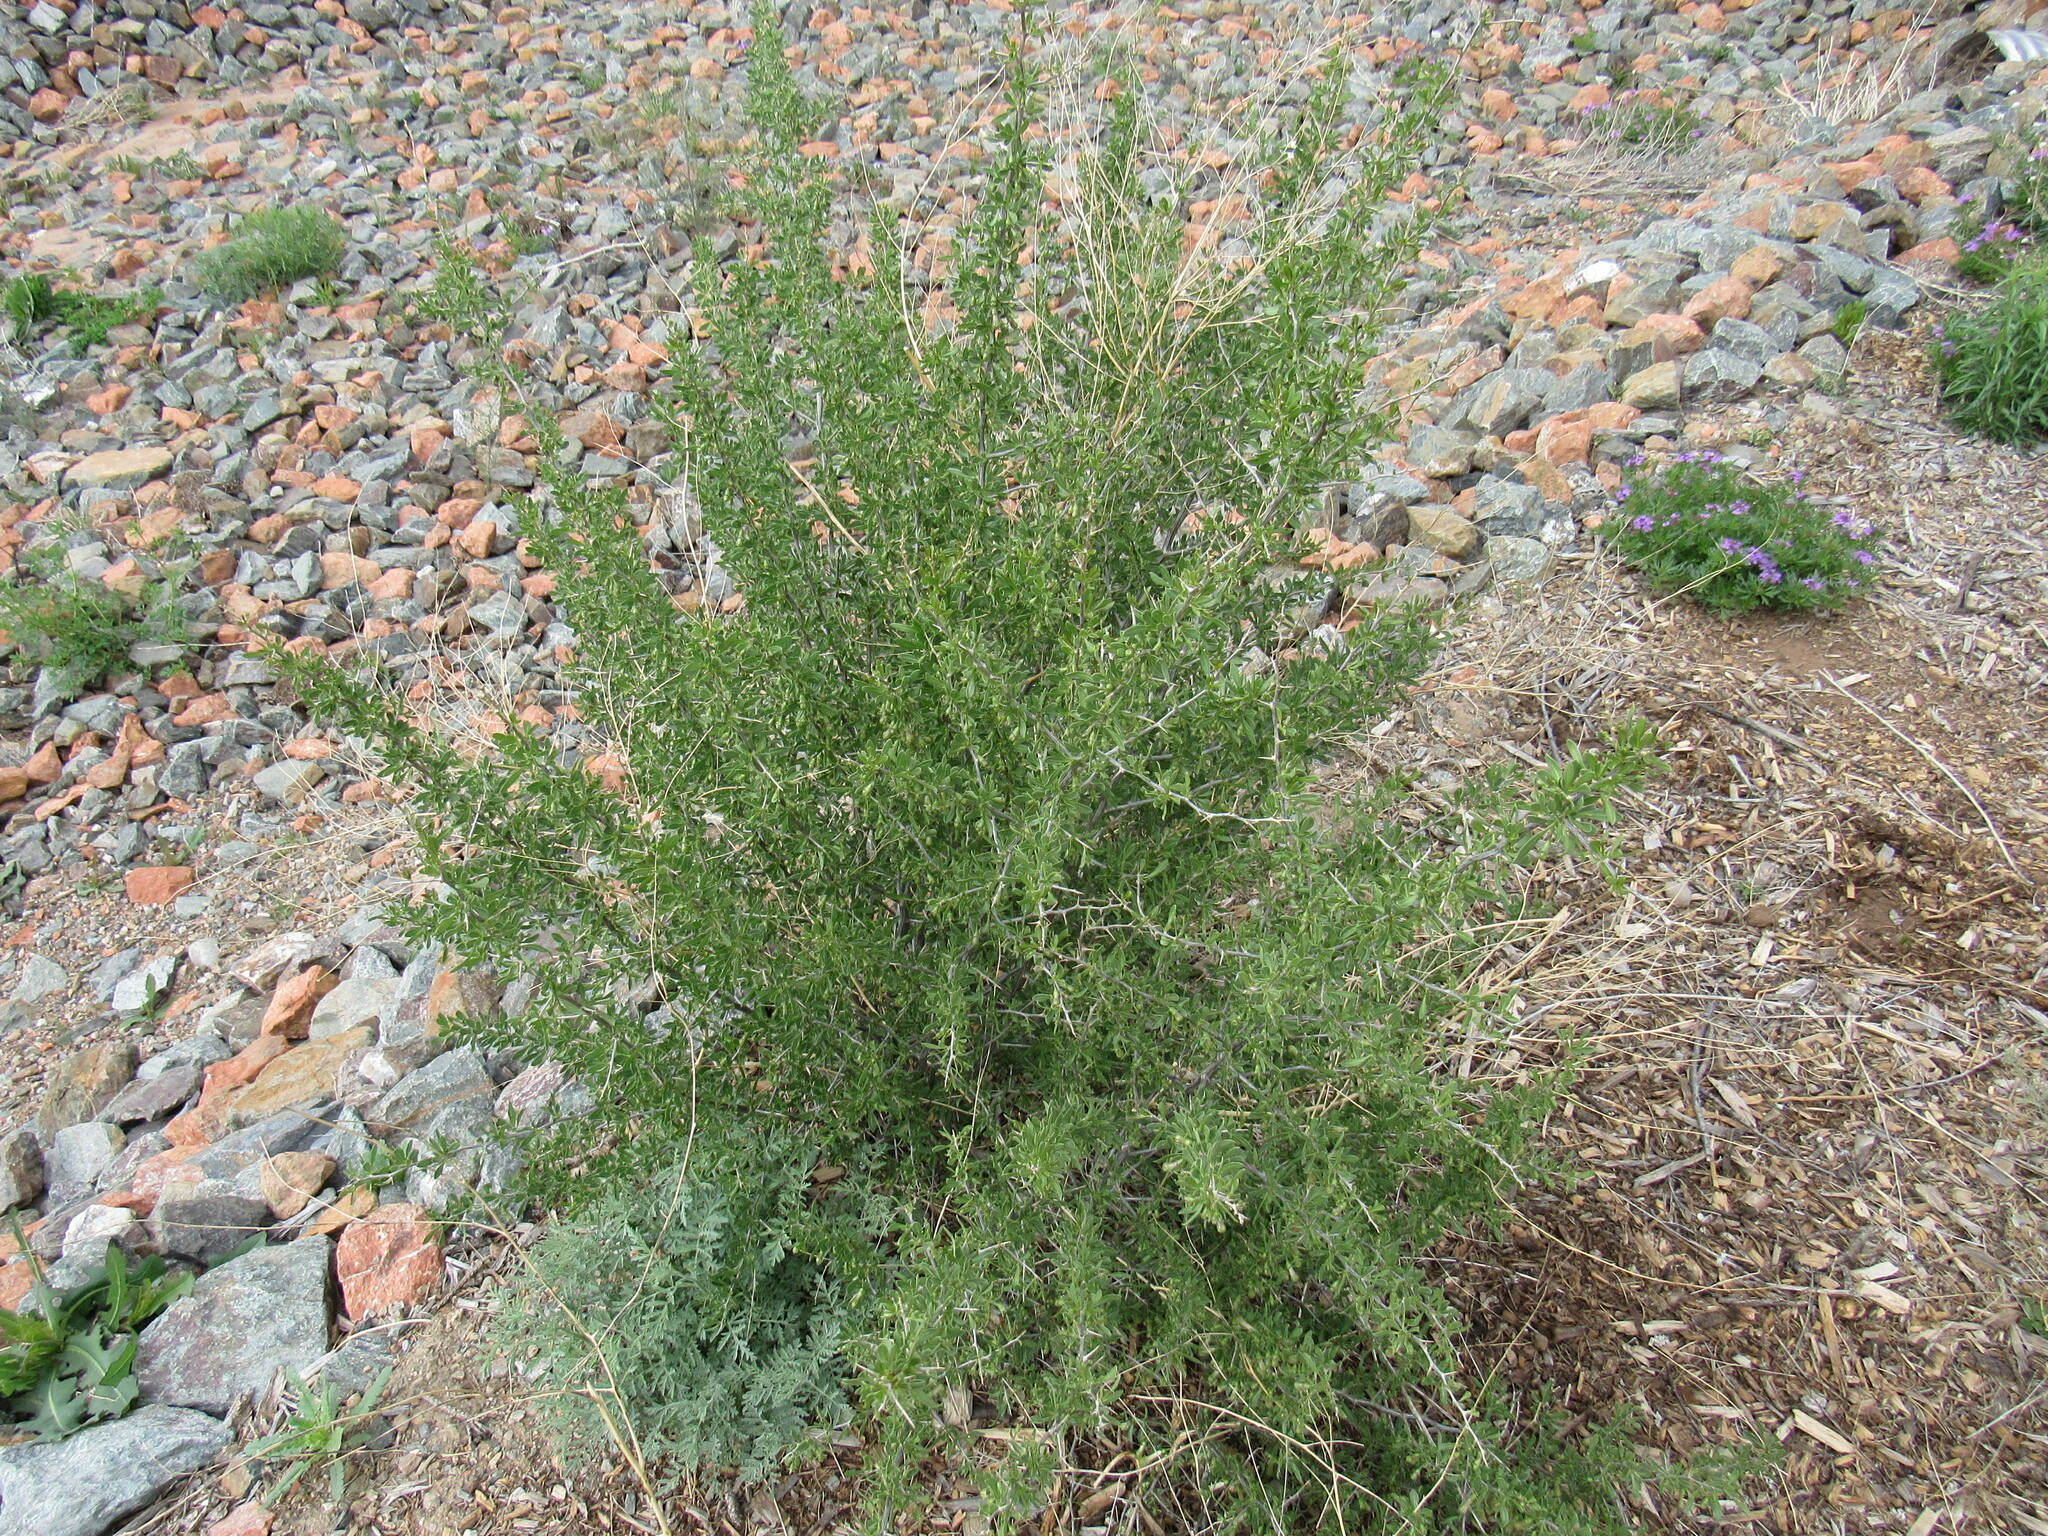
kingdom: Plantae
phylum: Tracheophyta
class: Magnoliopsida
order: Solanales
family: Solanaceae
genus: Lycium
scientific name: Lycium pallidum
